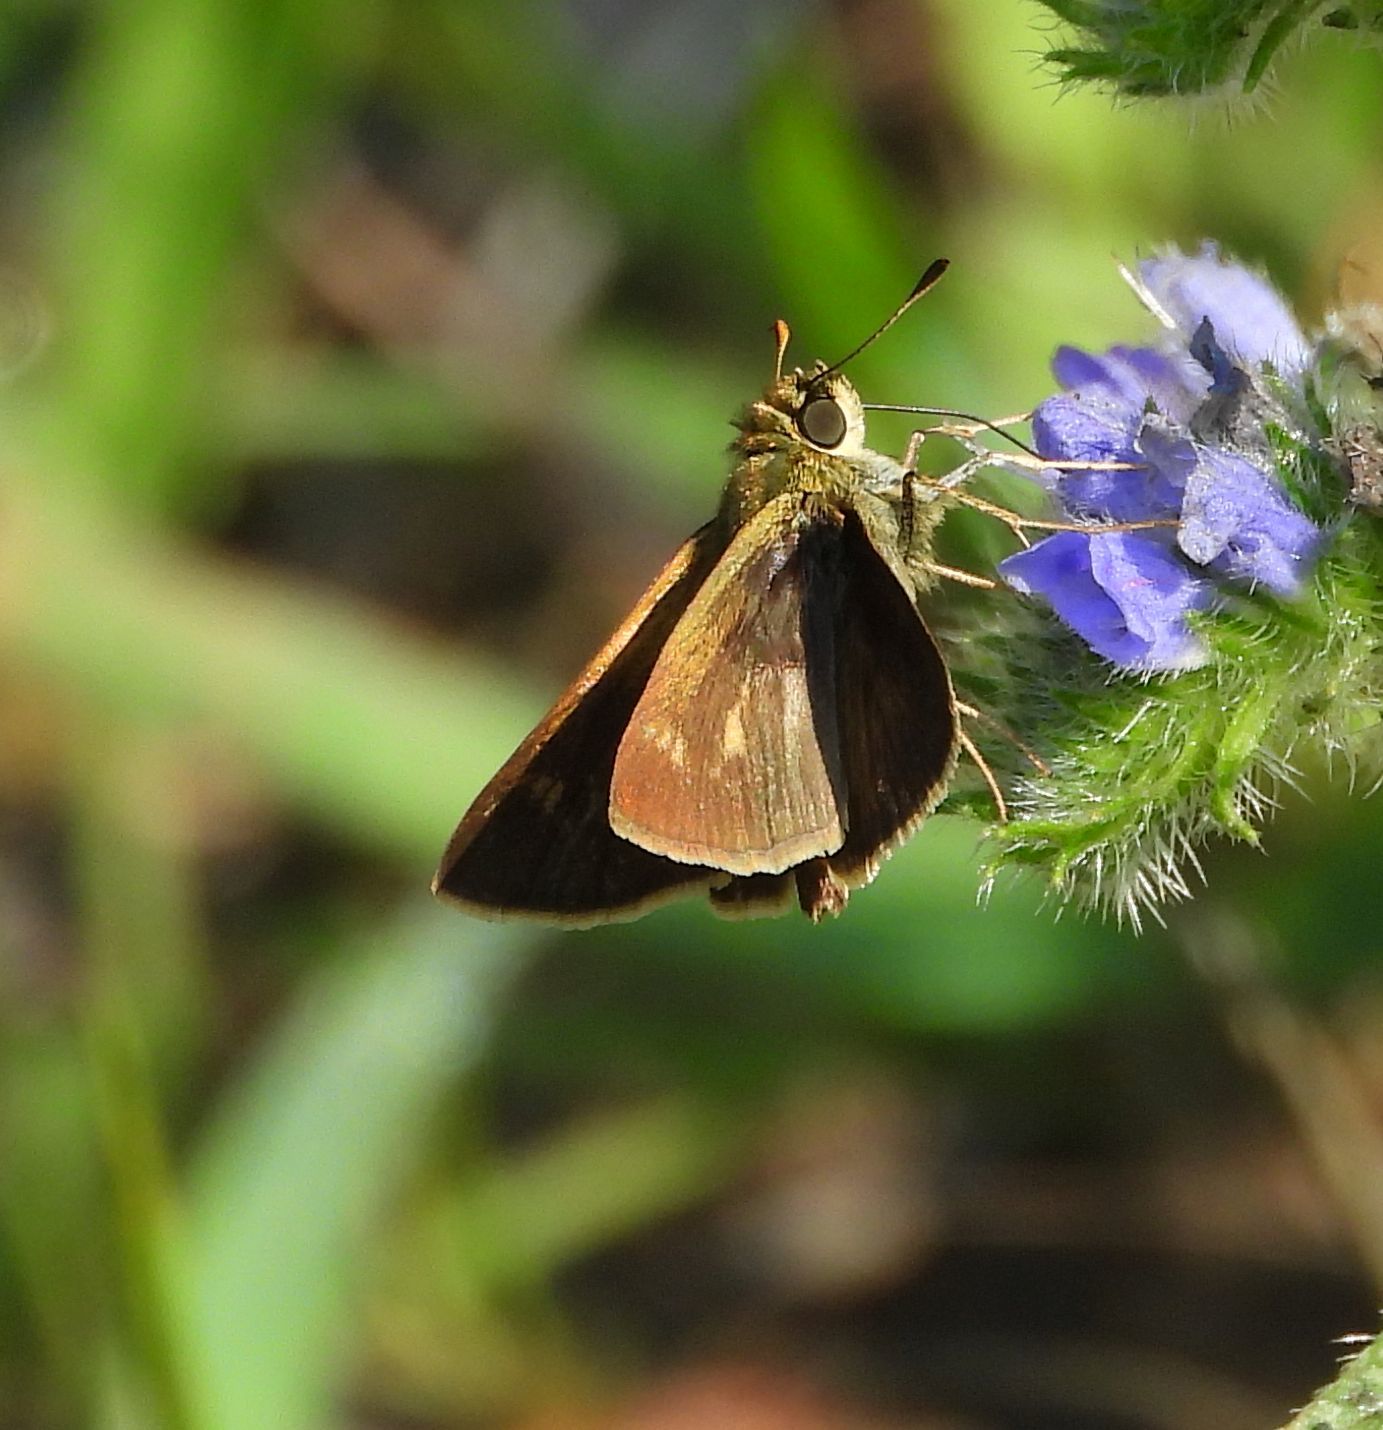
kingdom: Animalia
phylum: Arthropoda
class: Insecta
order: Lepidoptera
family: Hesperiidae
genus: Polites
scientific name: Polites egeremet
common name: Northern broken-dash
